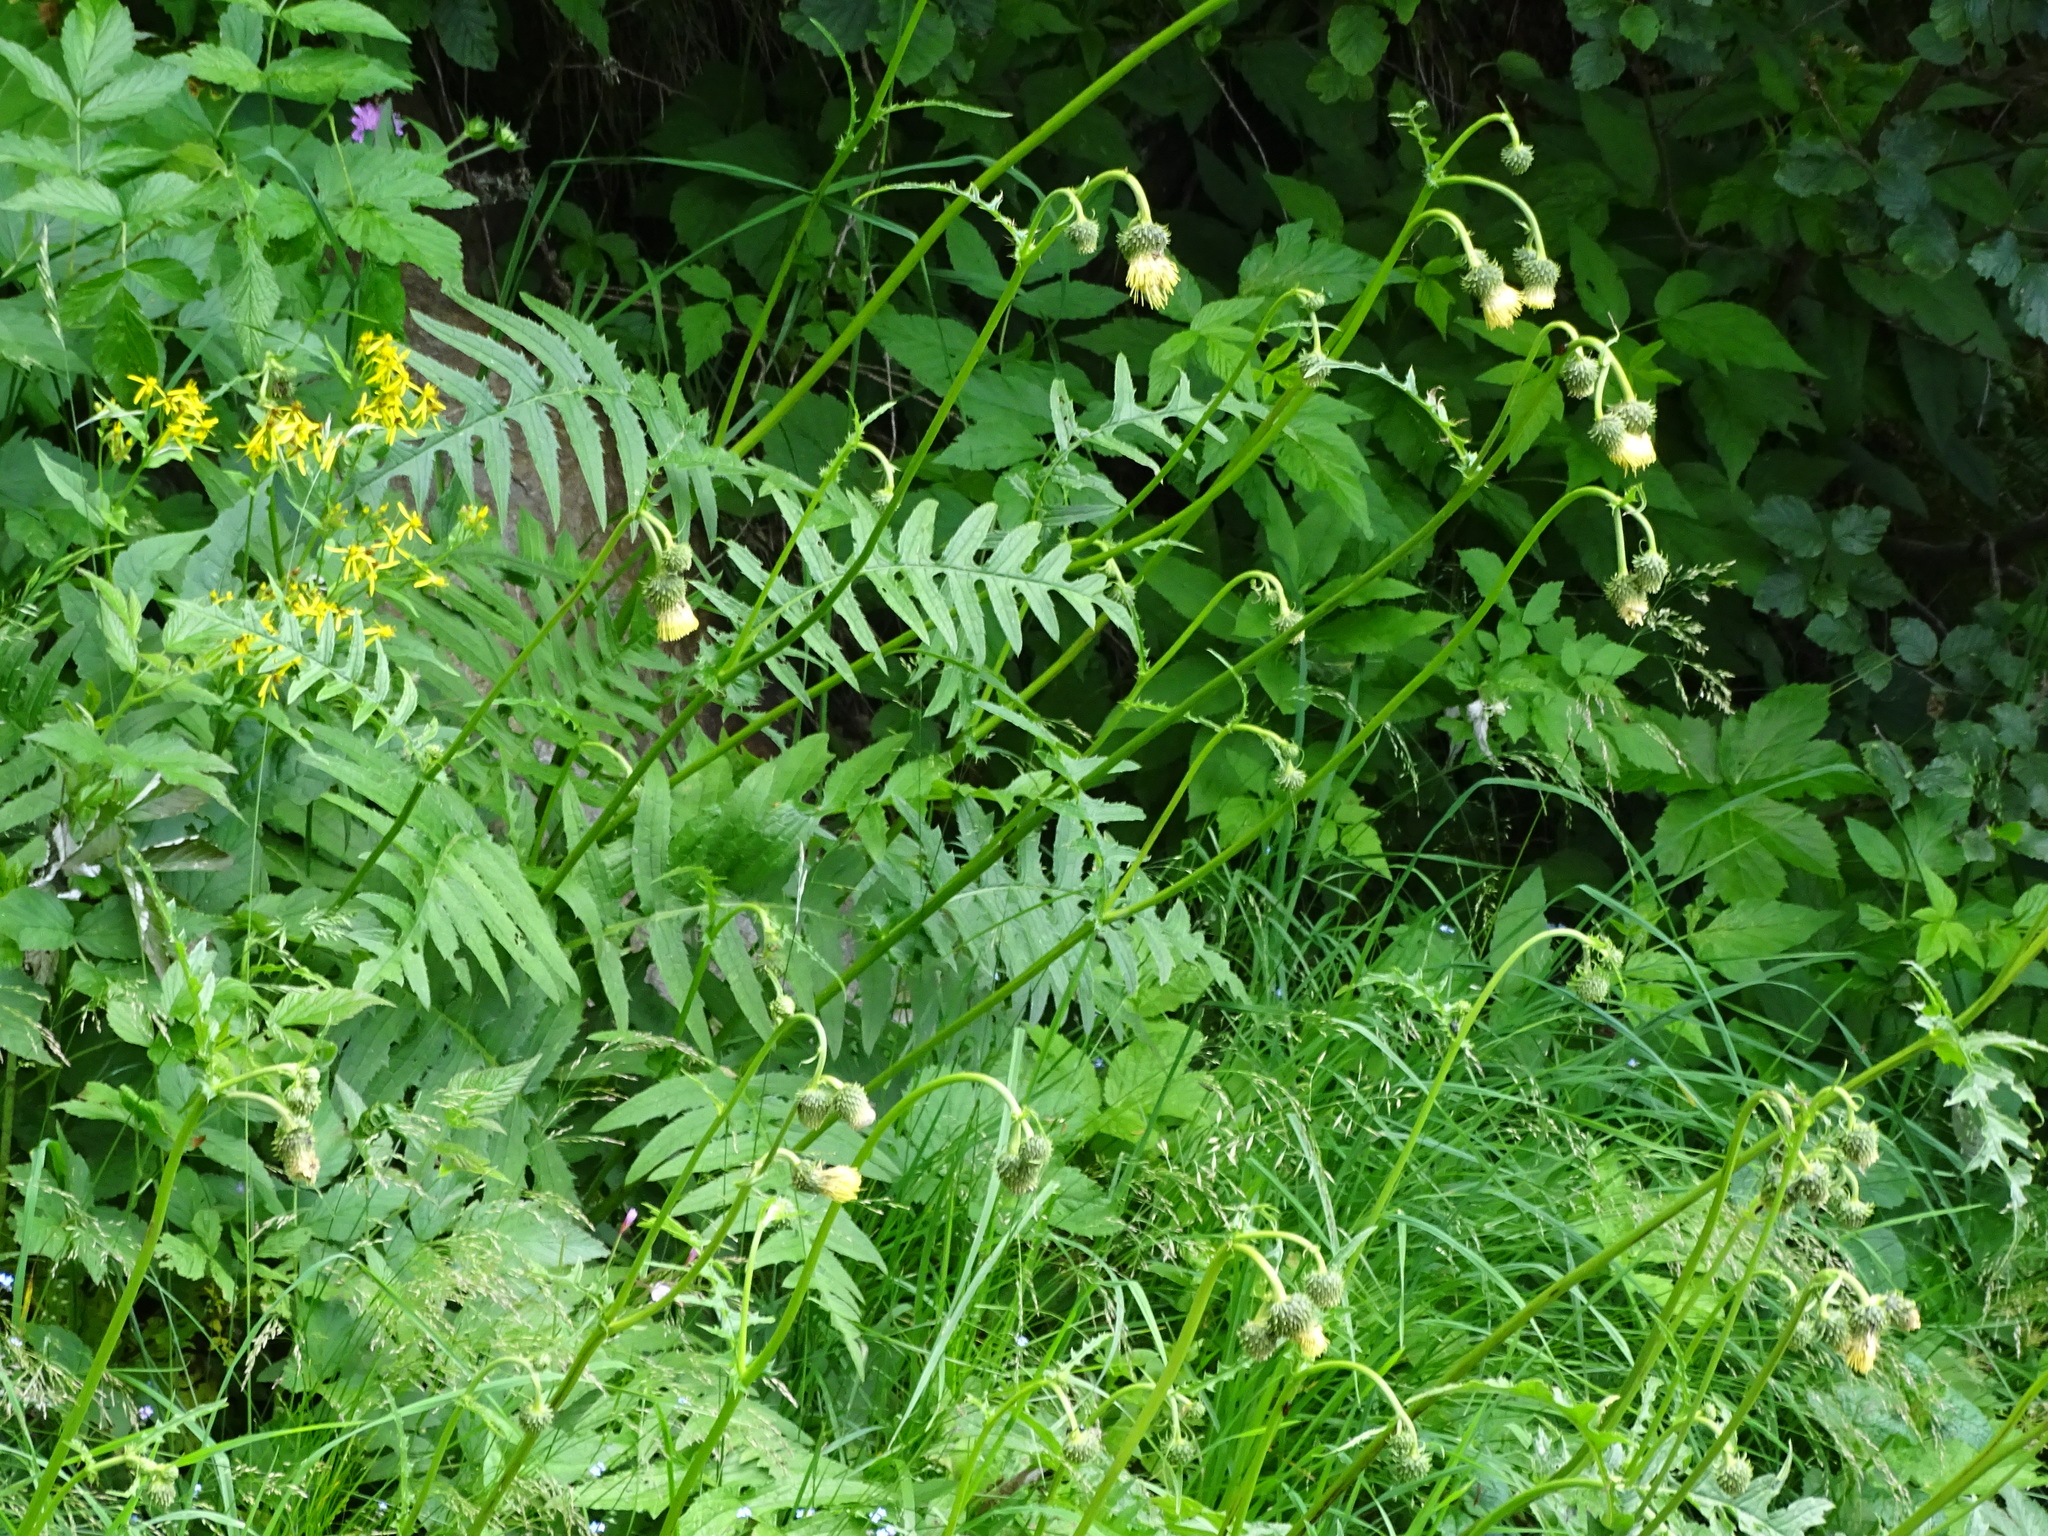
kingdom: Plantae
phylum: Tracheophyta
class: Magnoliopsida
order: Asterales
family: Asteraceae
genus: Cirsium
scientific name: Cirsium erisithales
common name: Yellow thistle
